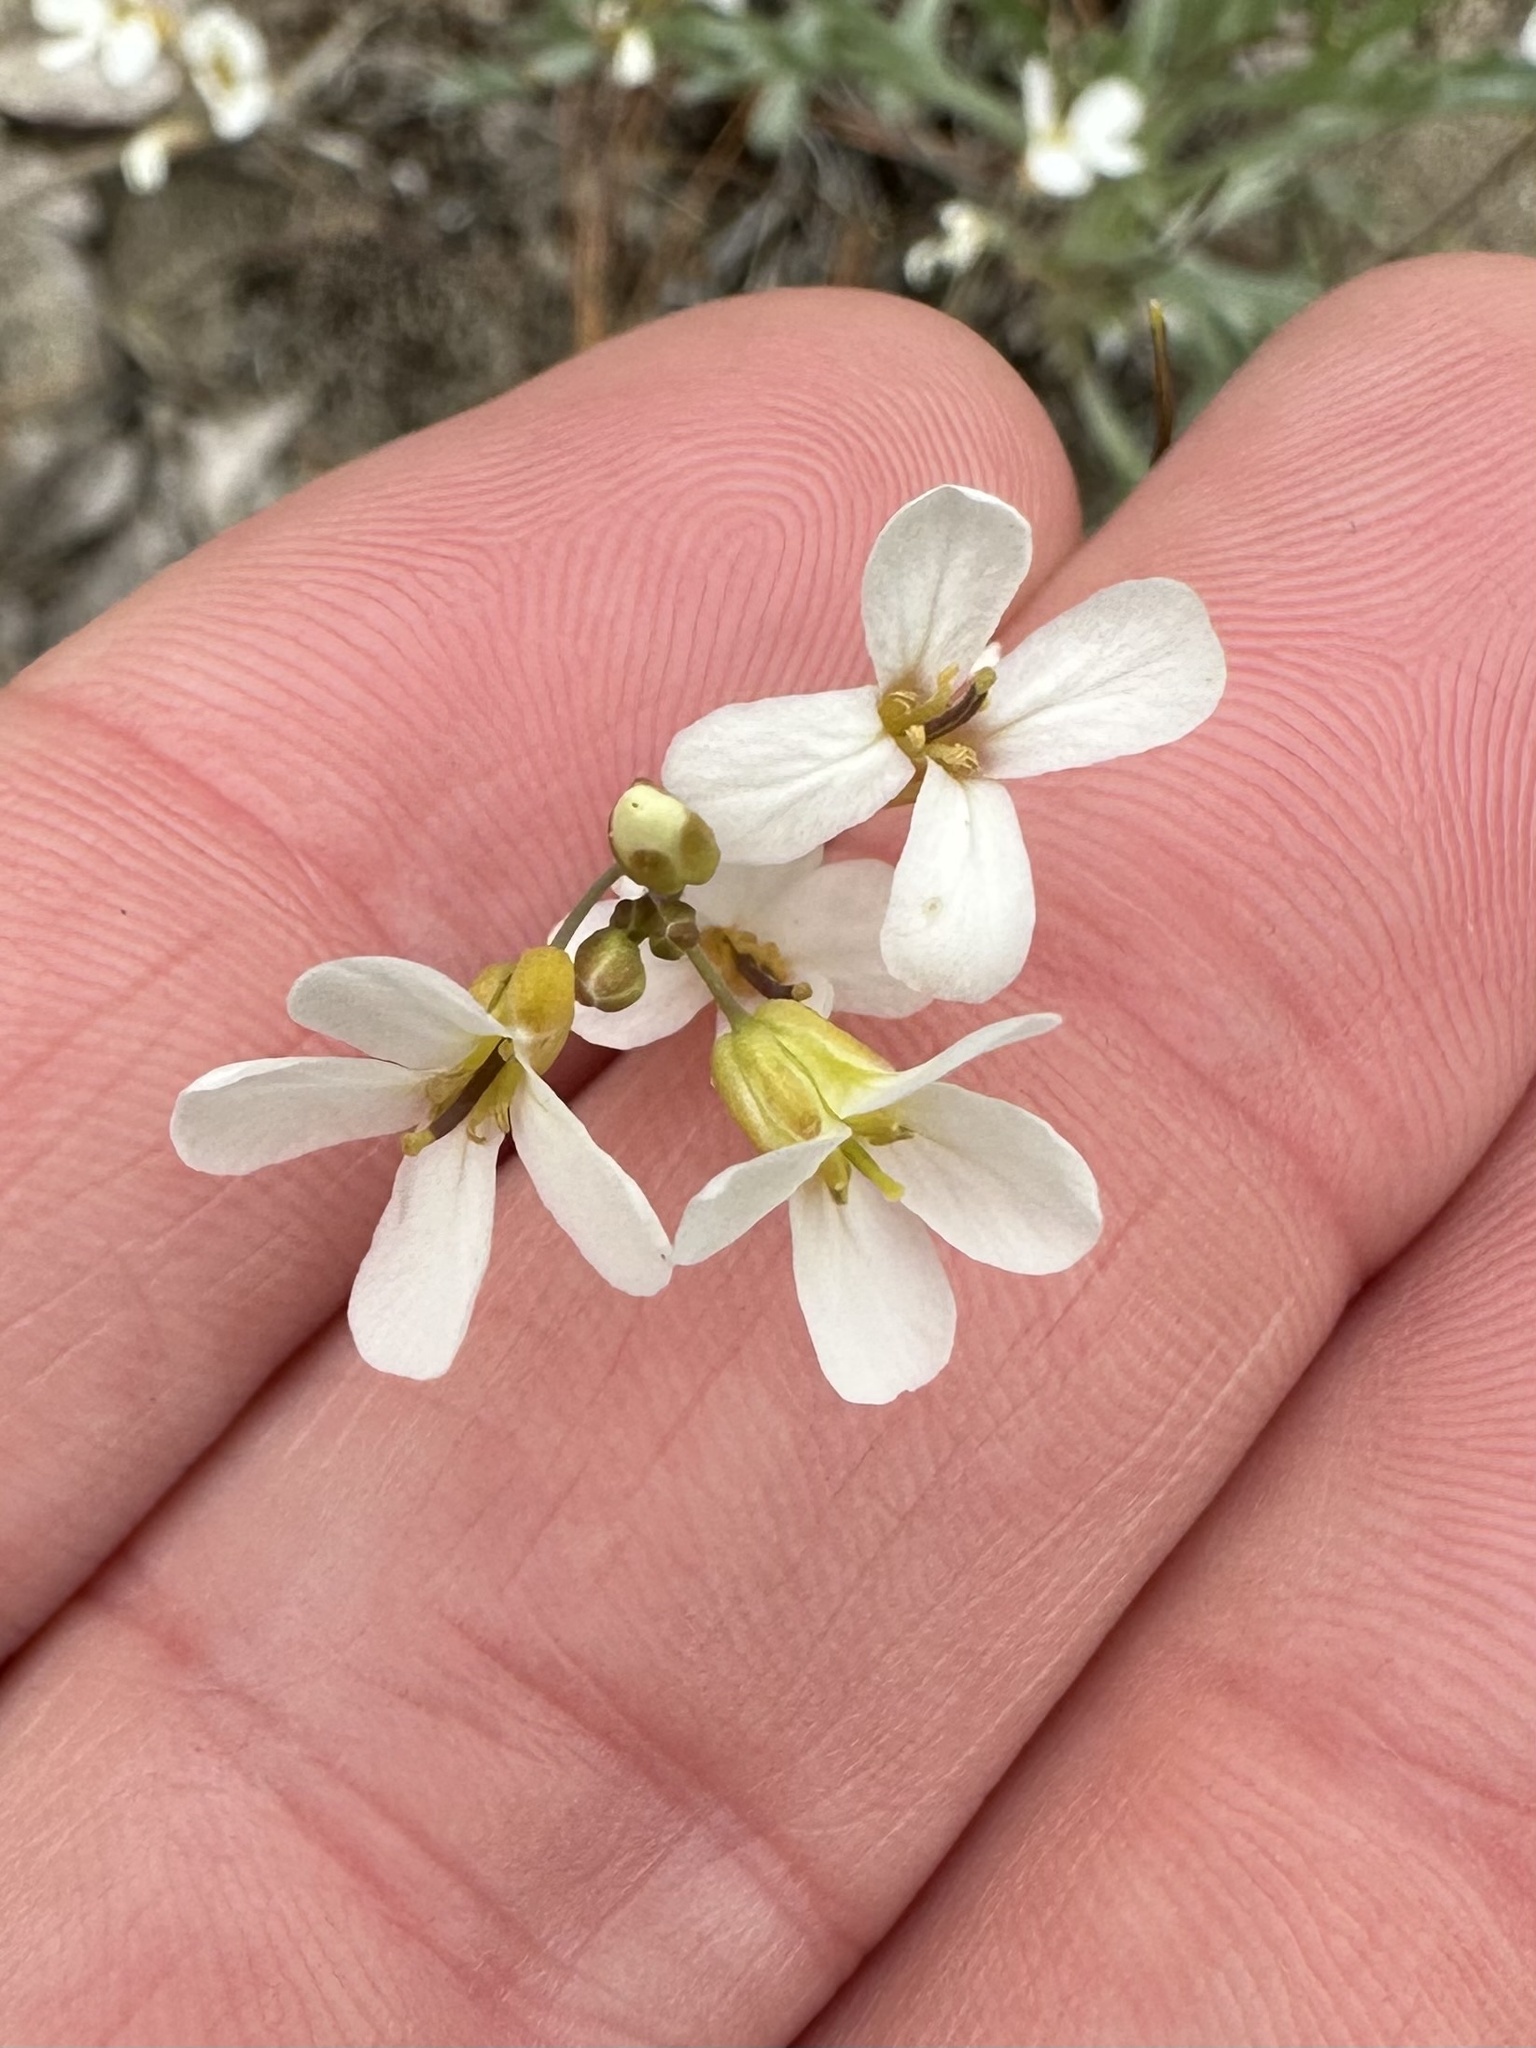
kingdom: Plantae
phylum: Tracheophyta
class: Magnoliopsida
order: Brassicales
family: Brassicaceae
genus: Arabidopsis
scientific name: Arabidopsis lyrata
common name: Lyrate rockcress
